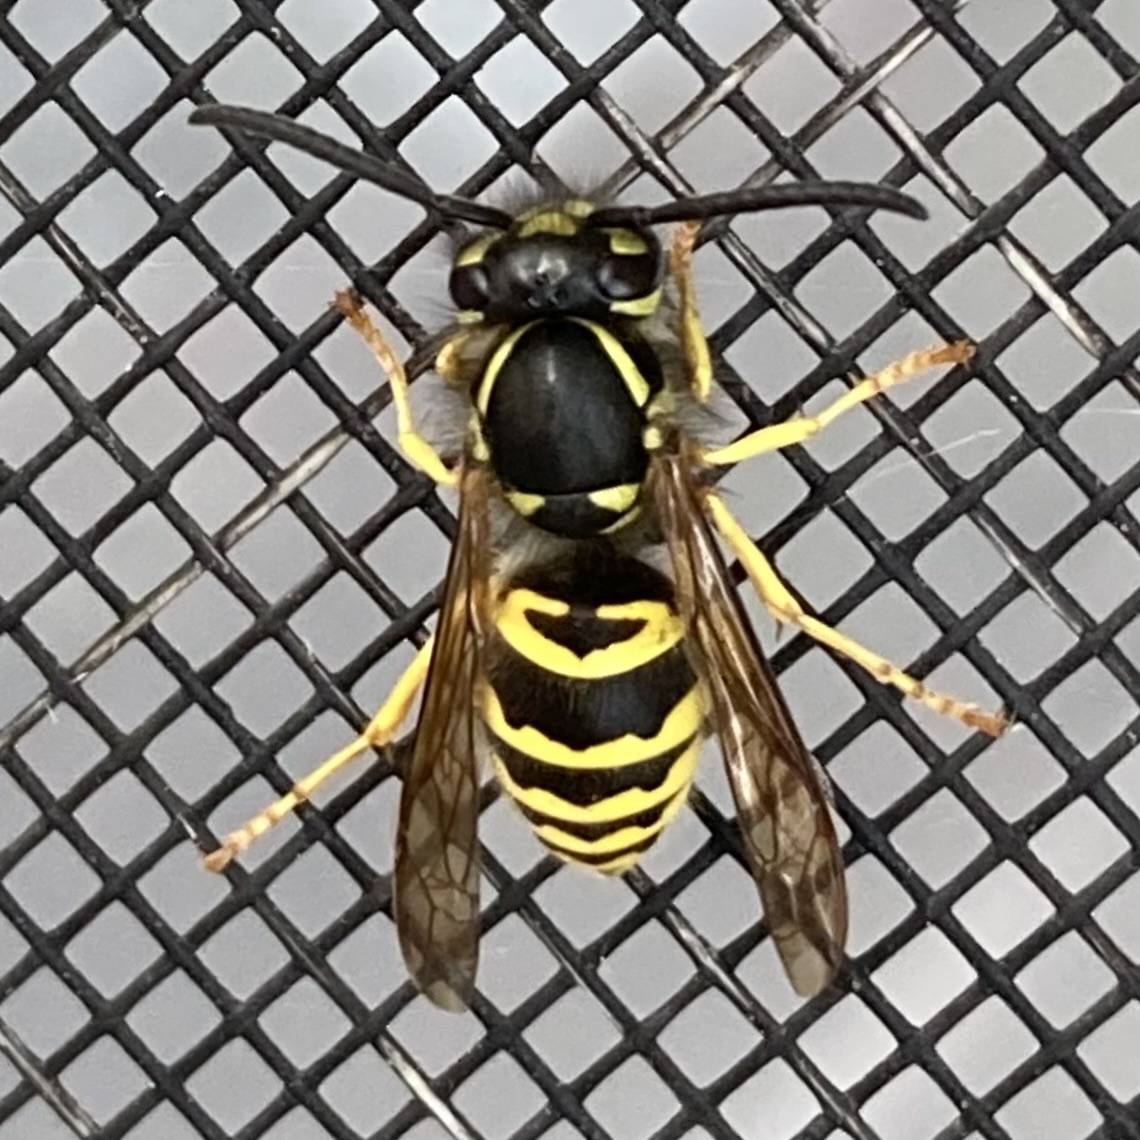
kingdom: Animalia
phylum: Arthropoda
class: Insecta
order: Hymenoptera
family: Vespidae
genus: Vespula
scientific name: Vespula maculifrons
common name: Eastern yellowjacket
